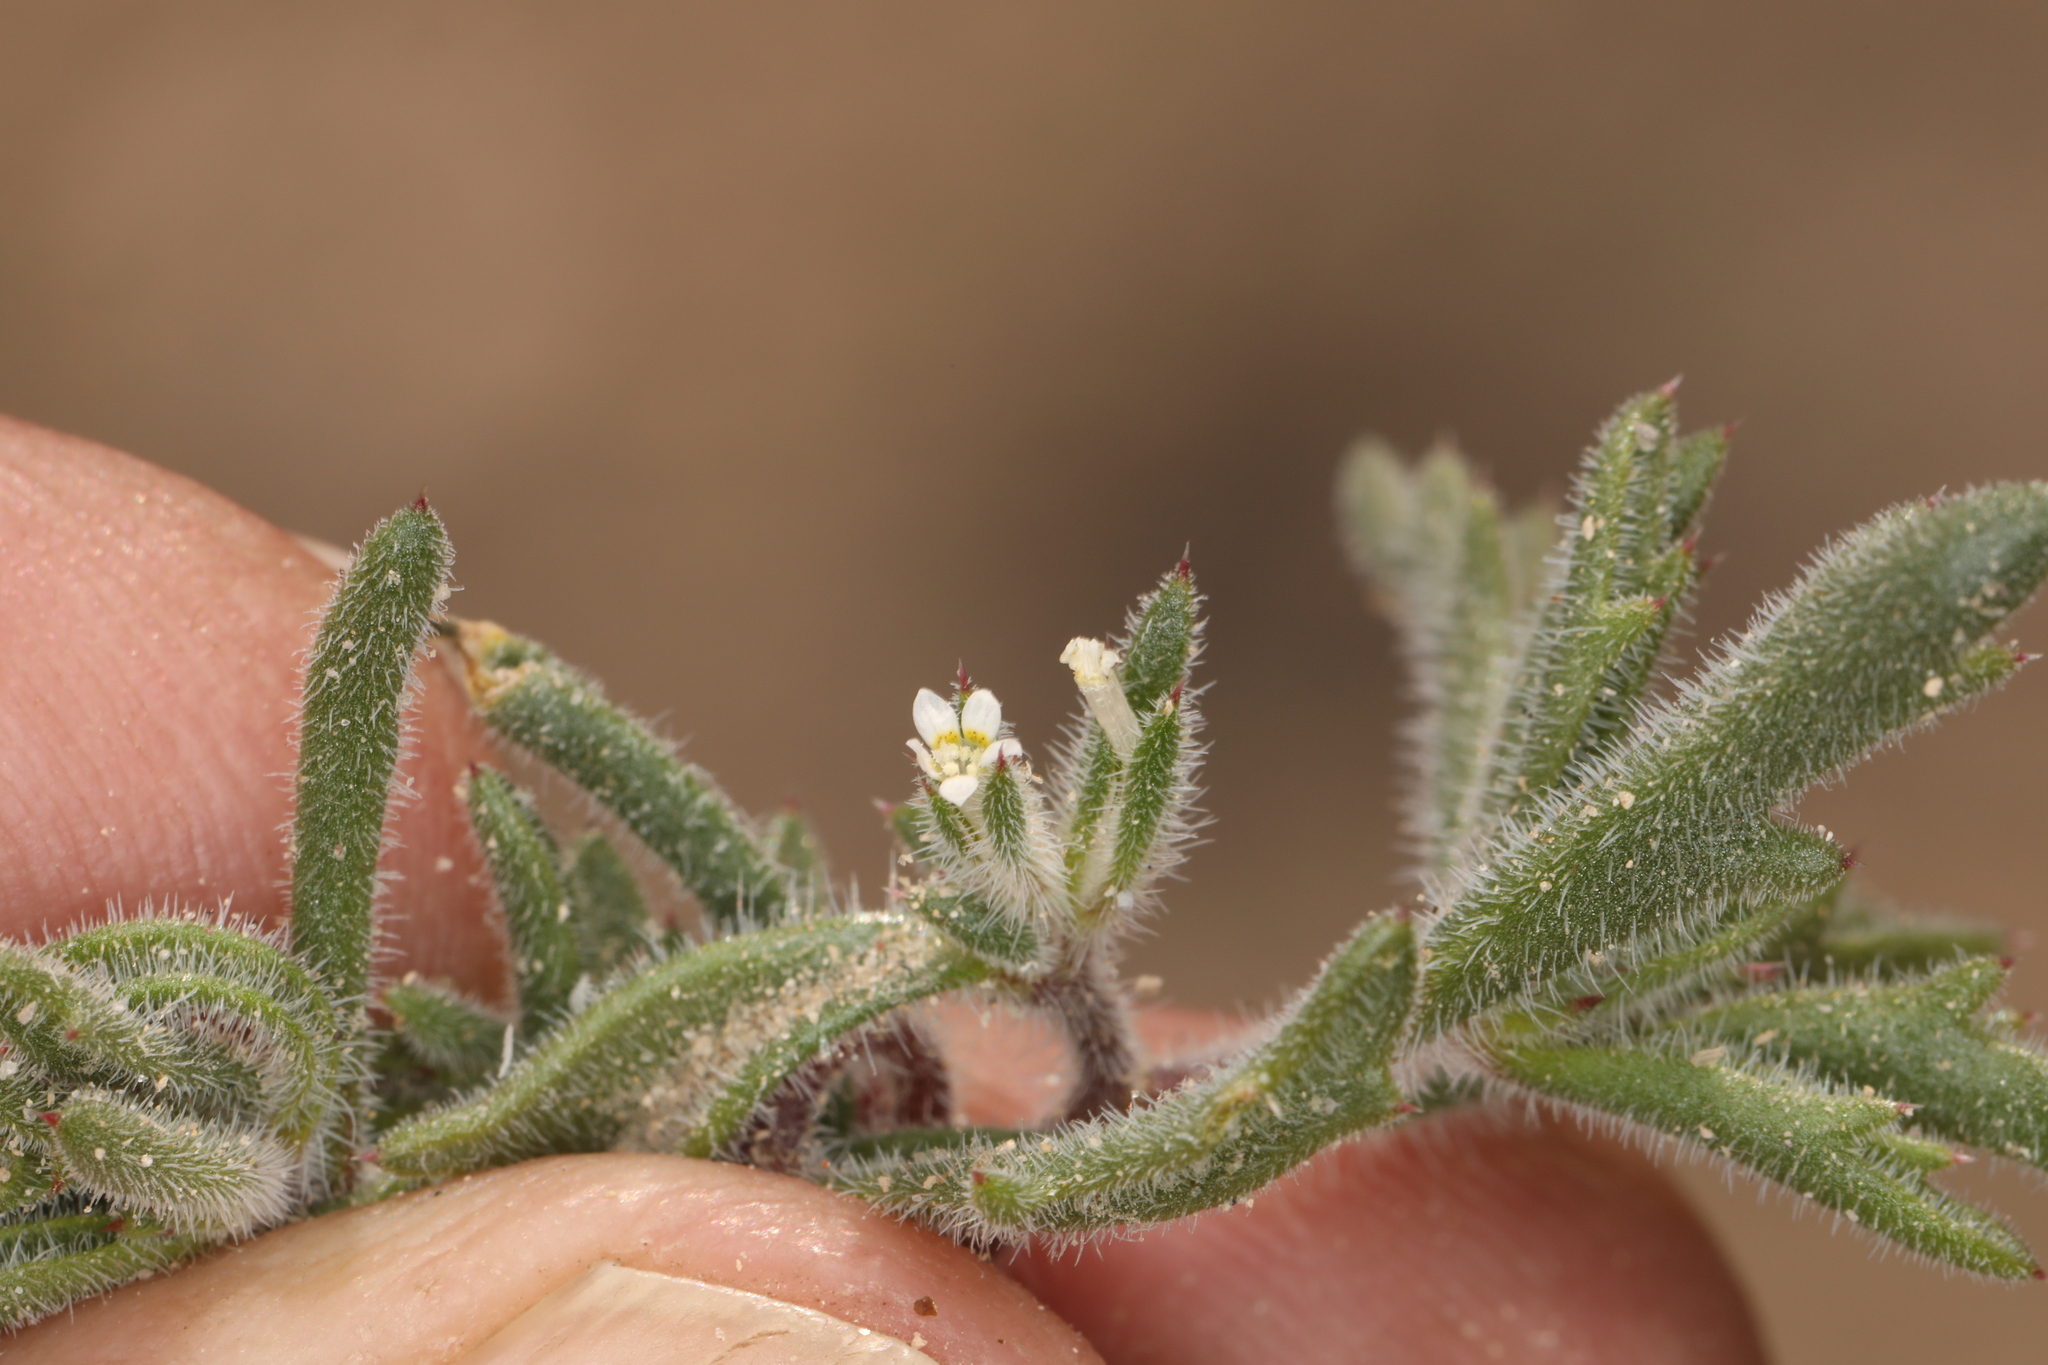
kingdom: Plantae
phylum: Tracheophyta
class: Magnoliopsida
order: Ericales
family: Polemoniaceae
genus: Loeseliastrum
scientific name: Loeseliastrum depressum
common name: Depressed ipomopsis
